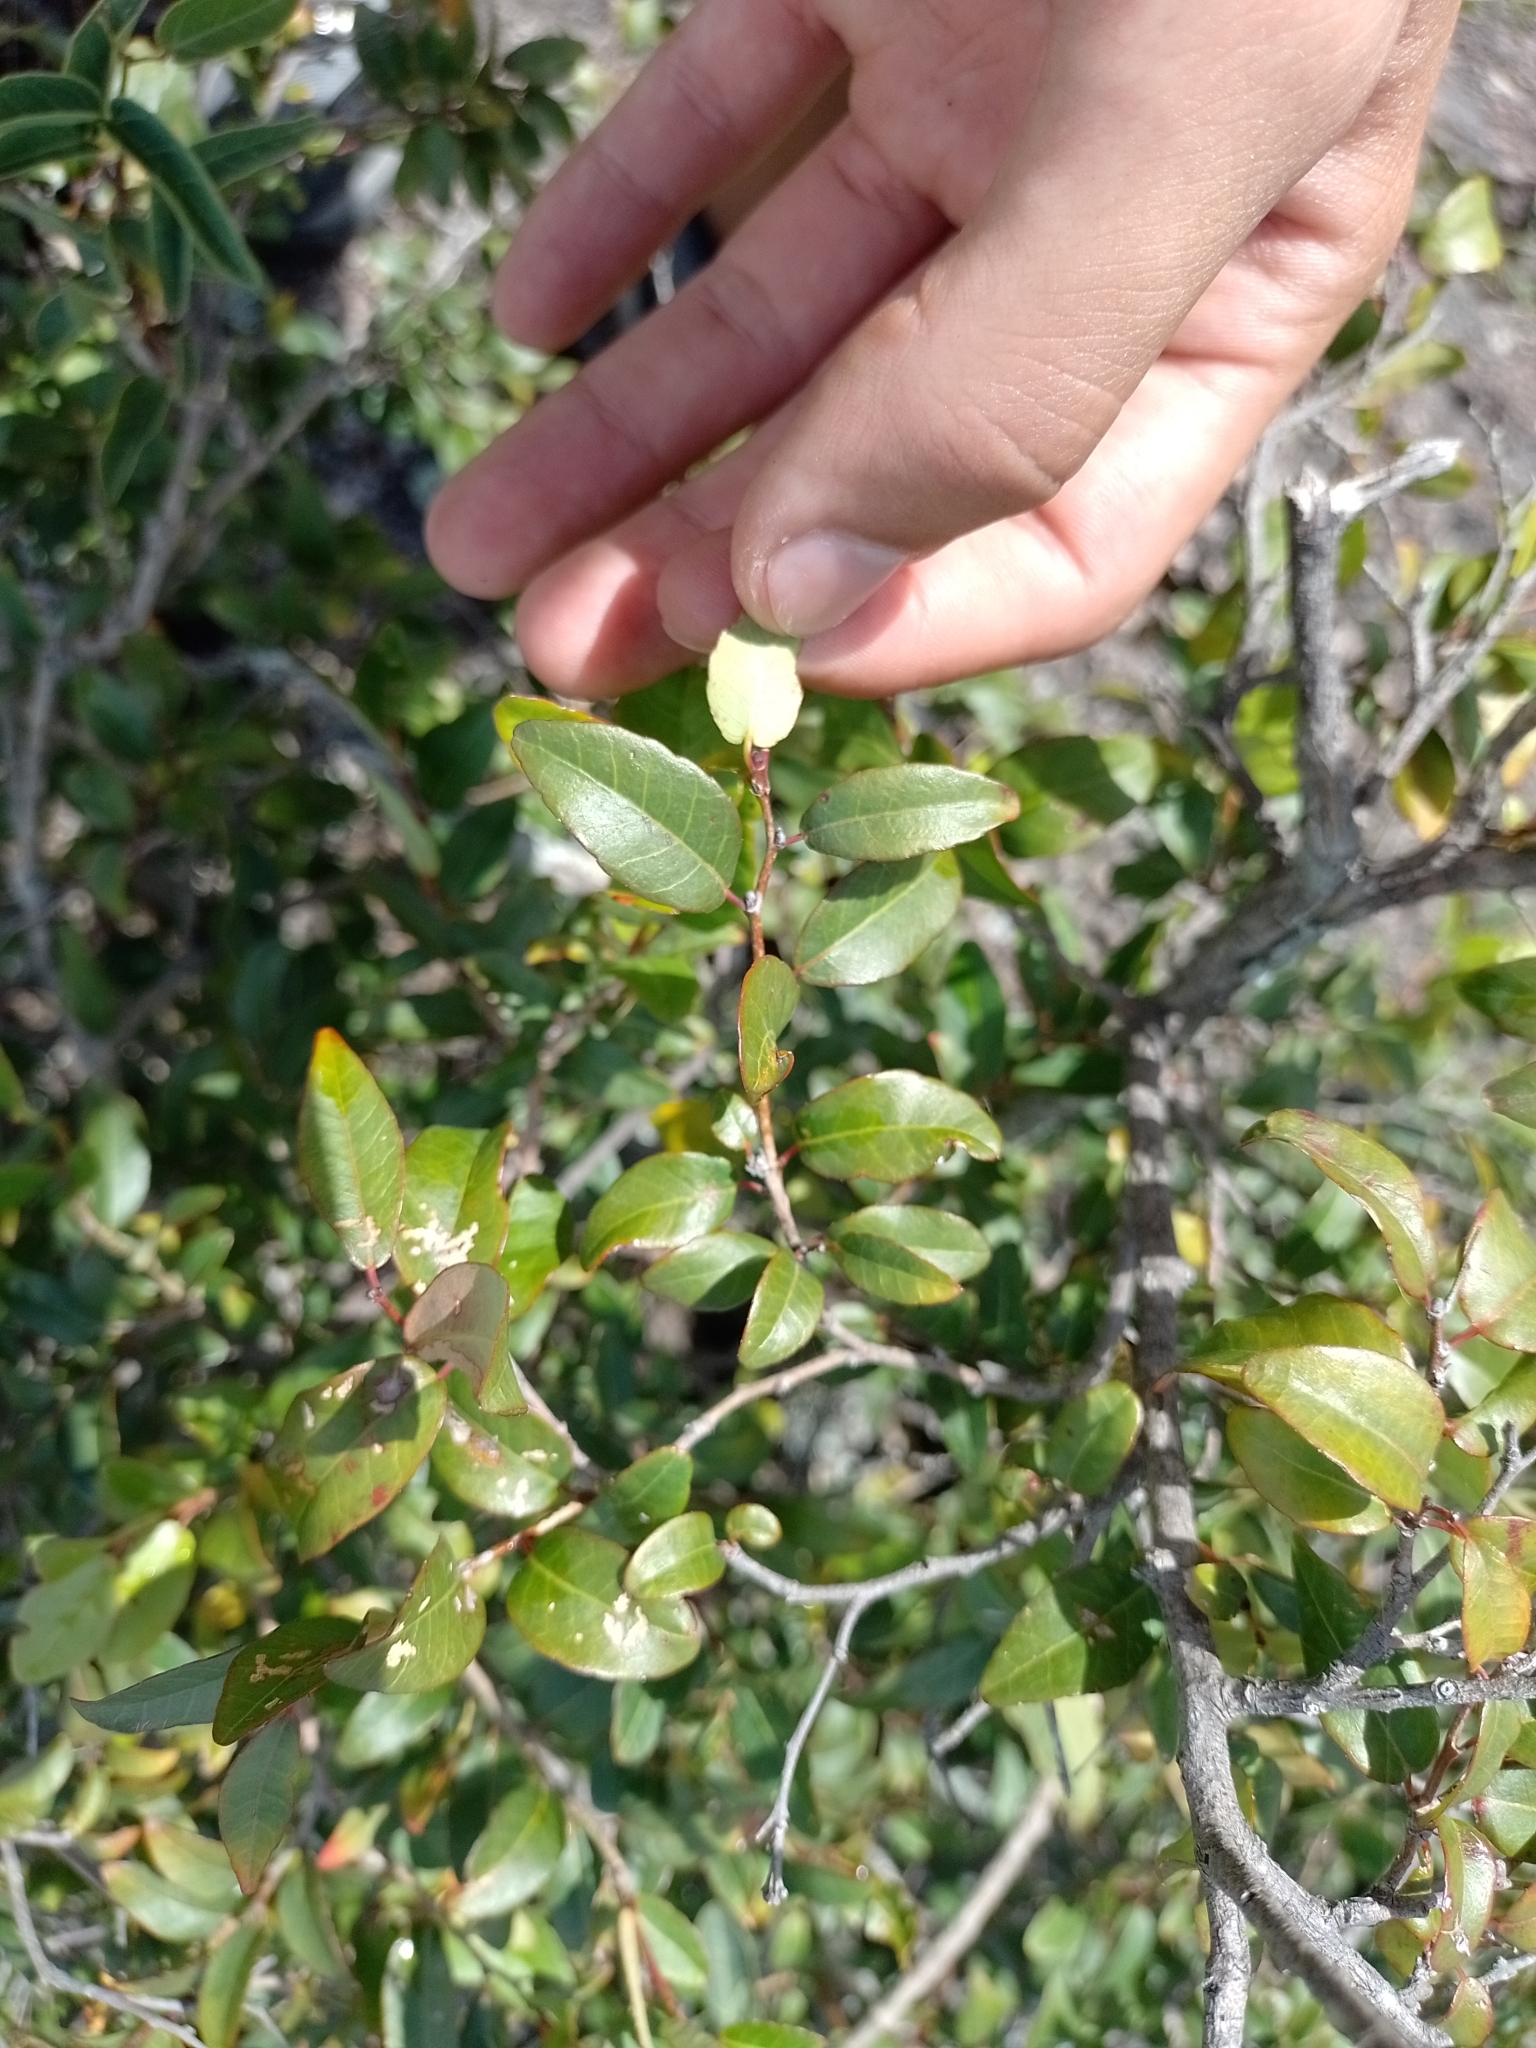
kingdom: Plantae
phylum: Tracheophyta
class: Magnoliopsida
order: Malpighiales
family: Euphorbiaceae
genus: Sebastiania
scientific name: Sebastiania klotzschiana
